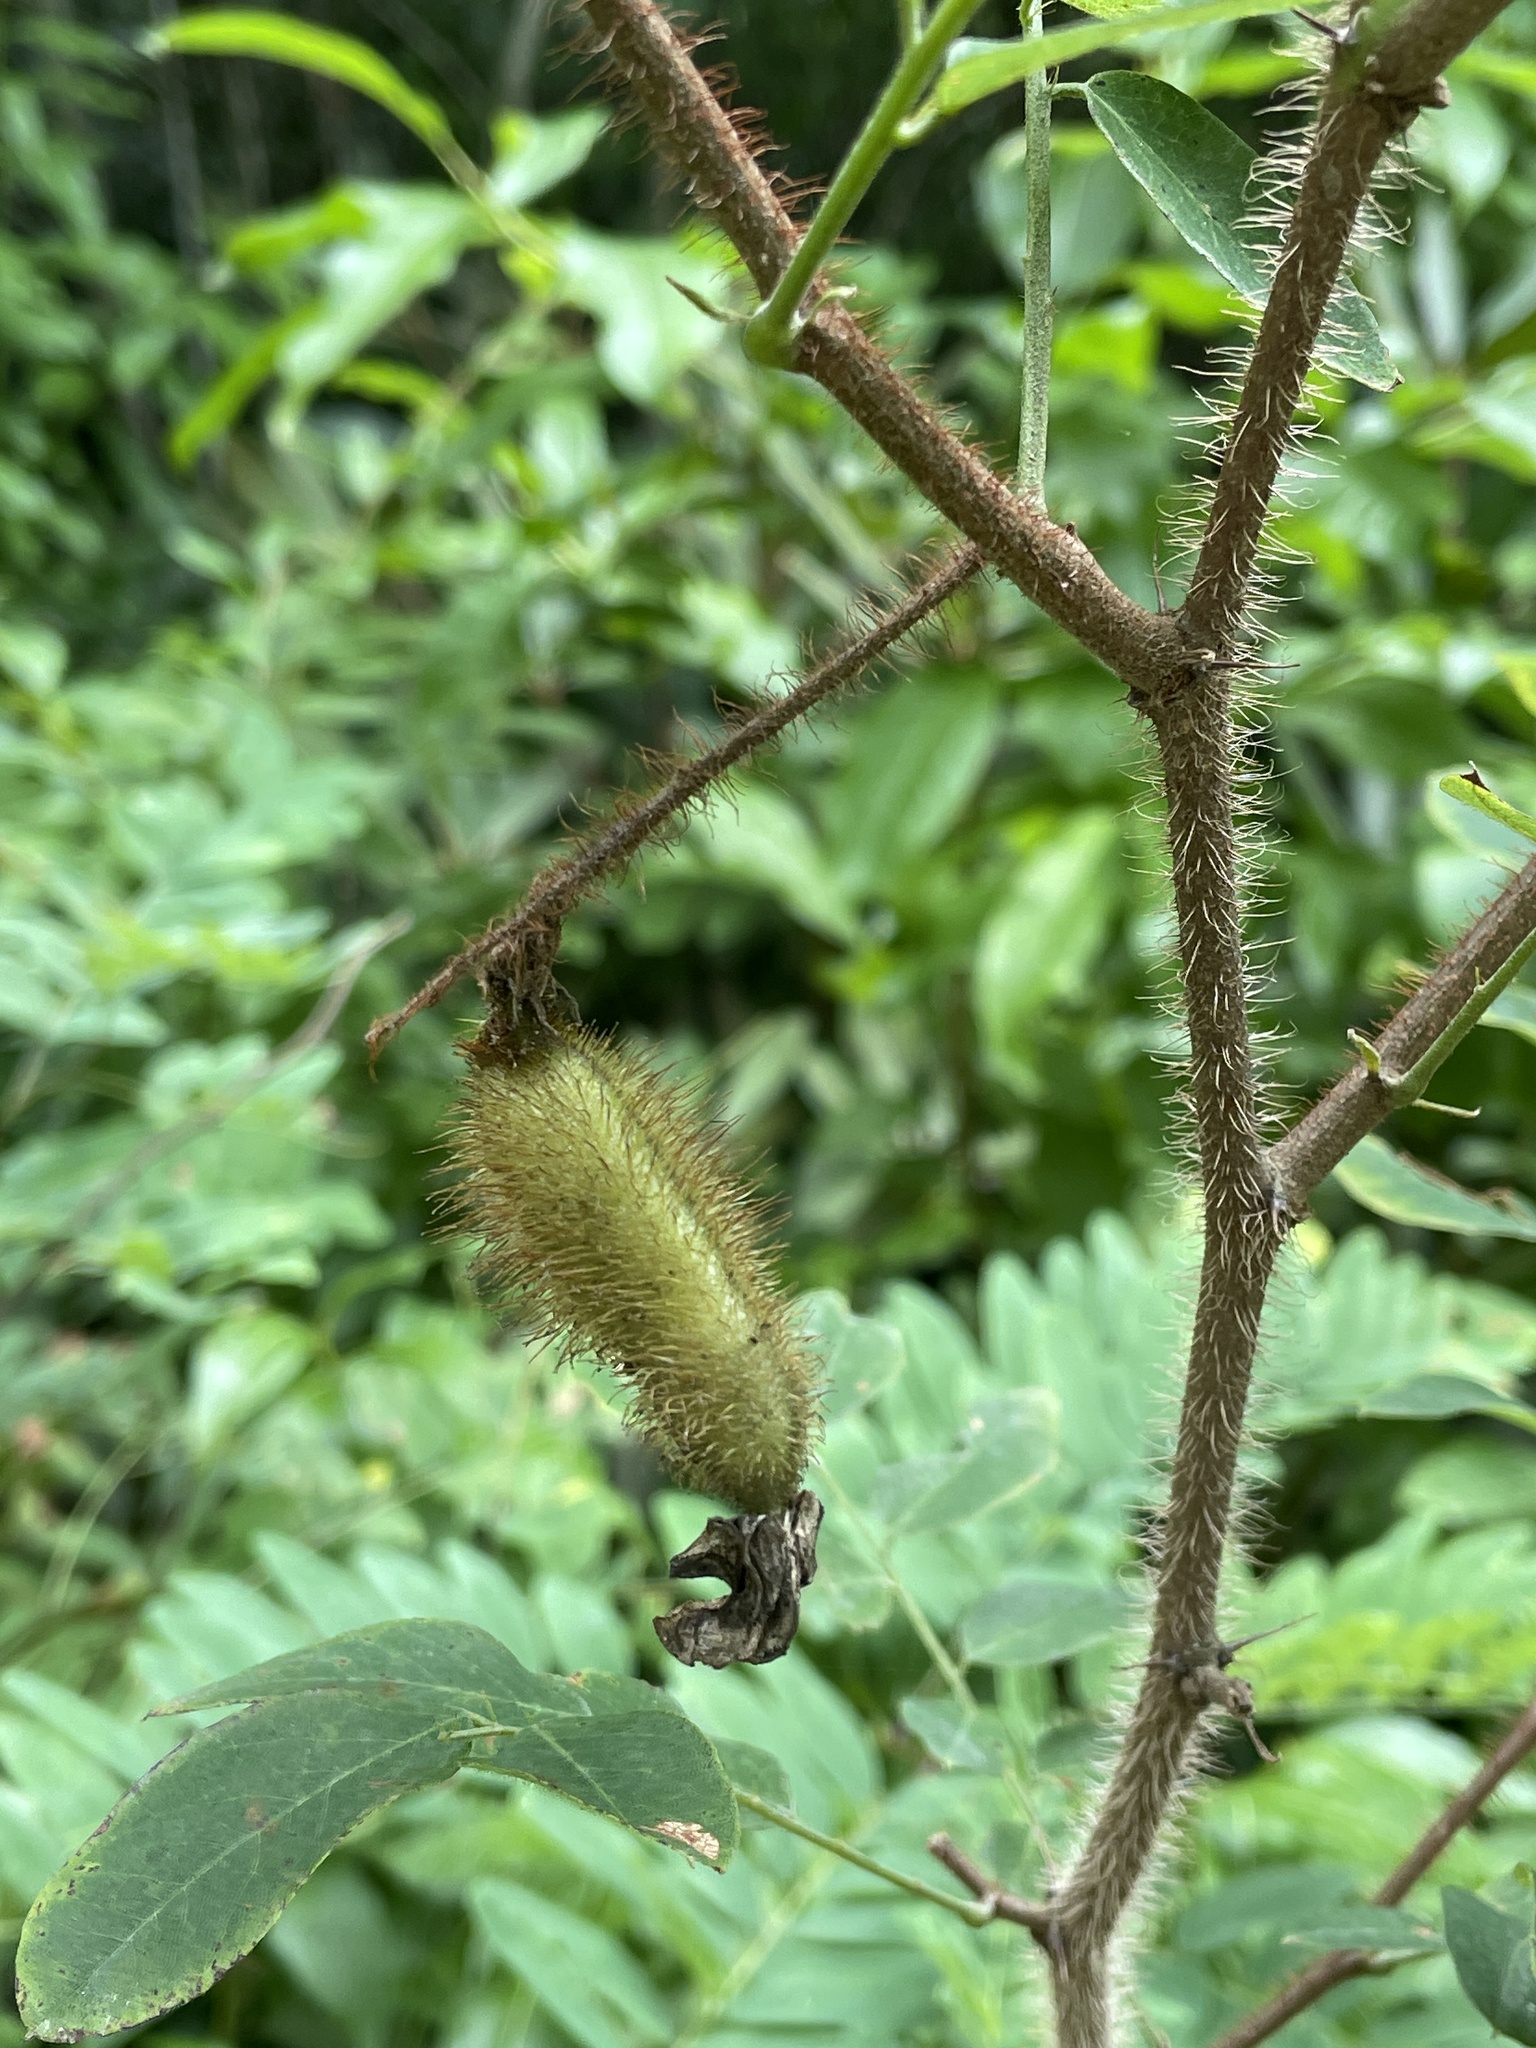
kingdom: Plantae
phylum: Tracheophyta
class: Magnoliopsida
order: Fabales
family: Fabaceae
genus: Robinia
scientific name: Robinia hispida
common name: Bristly locust
